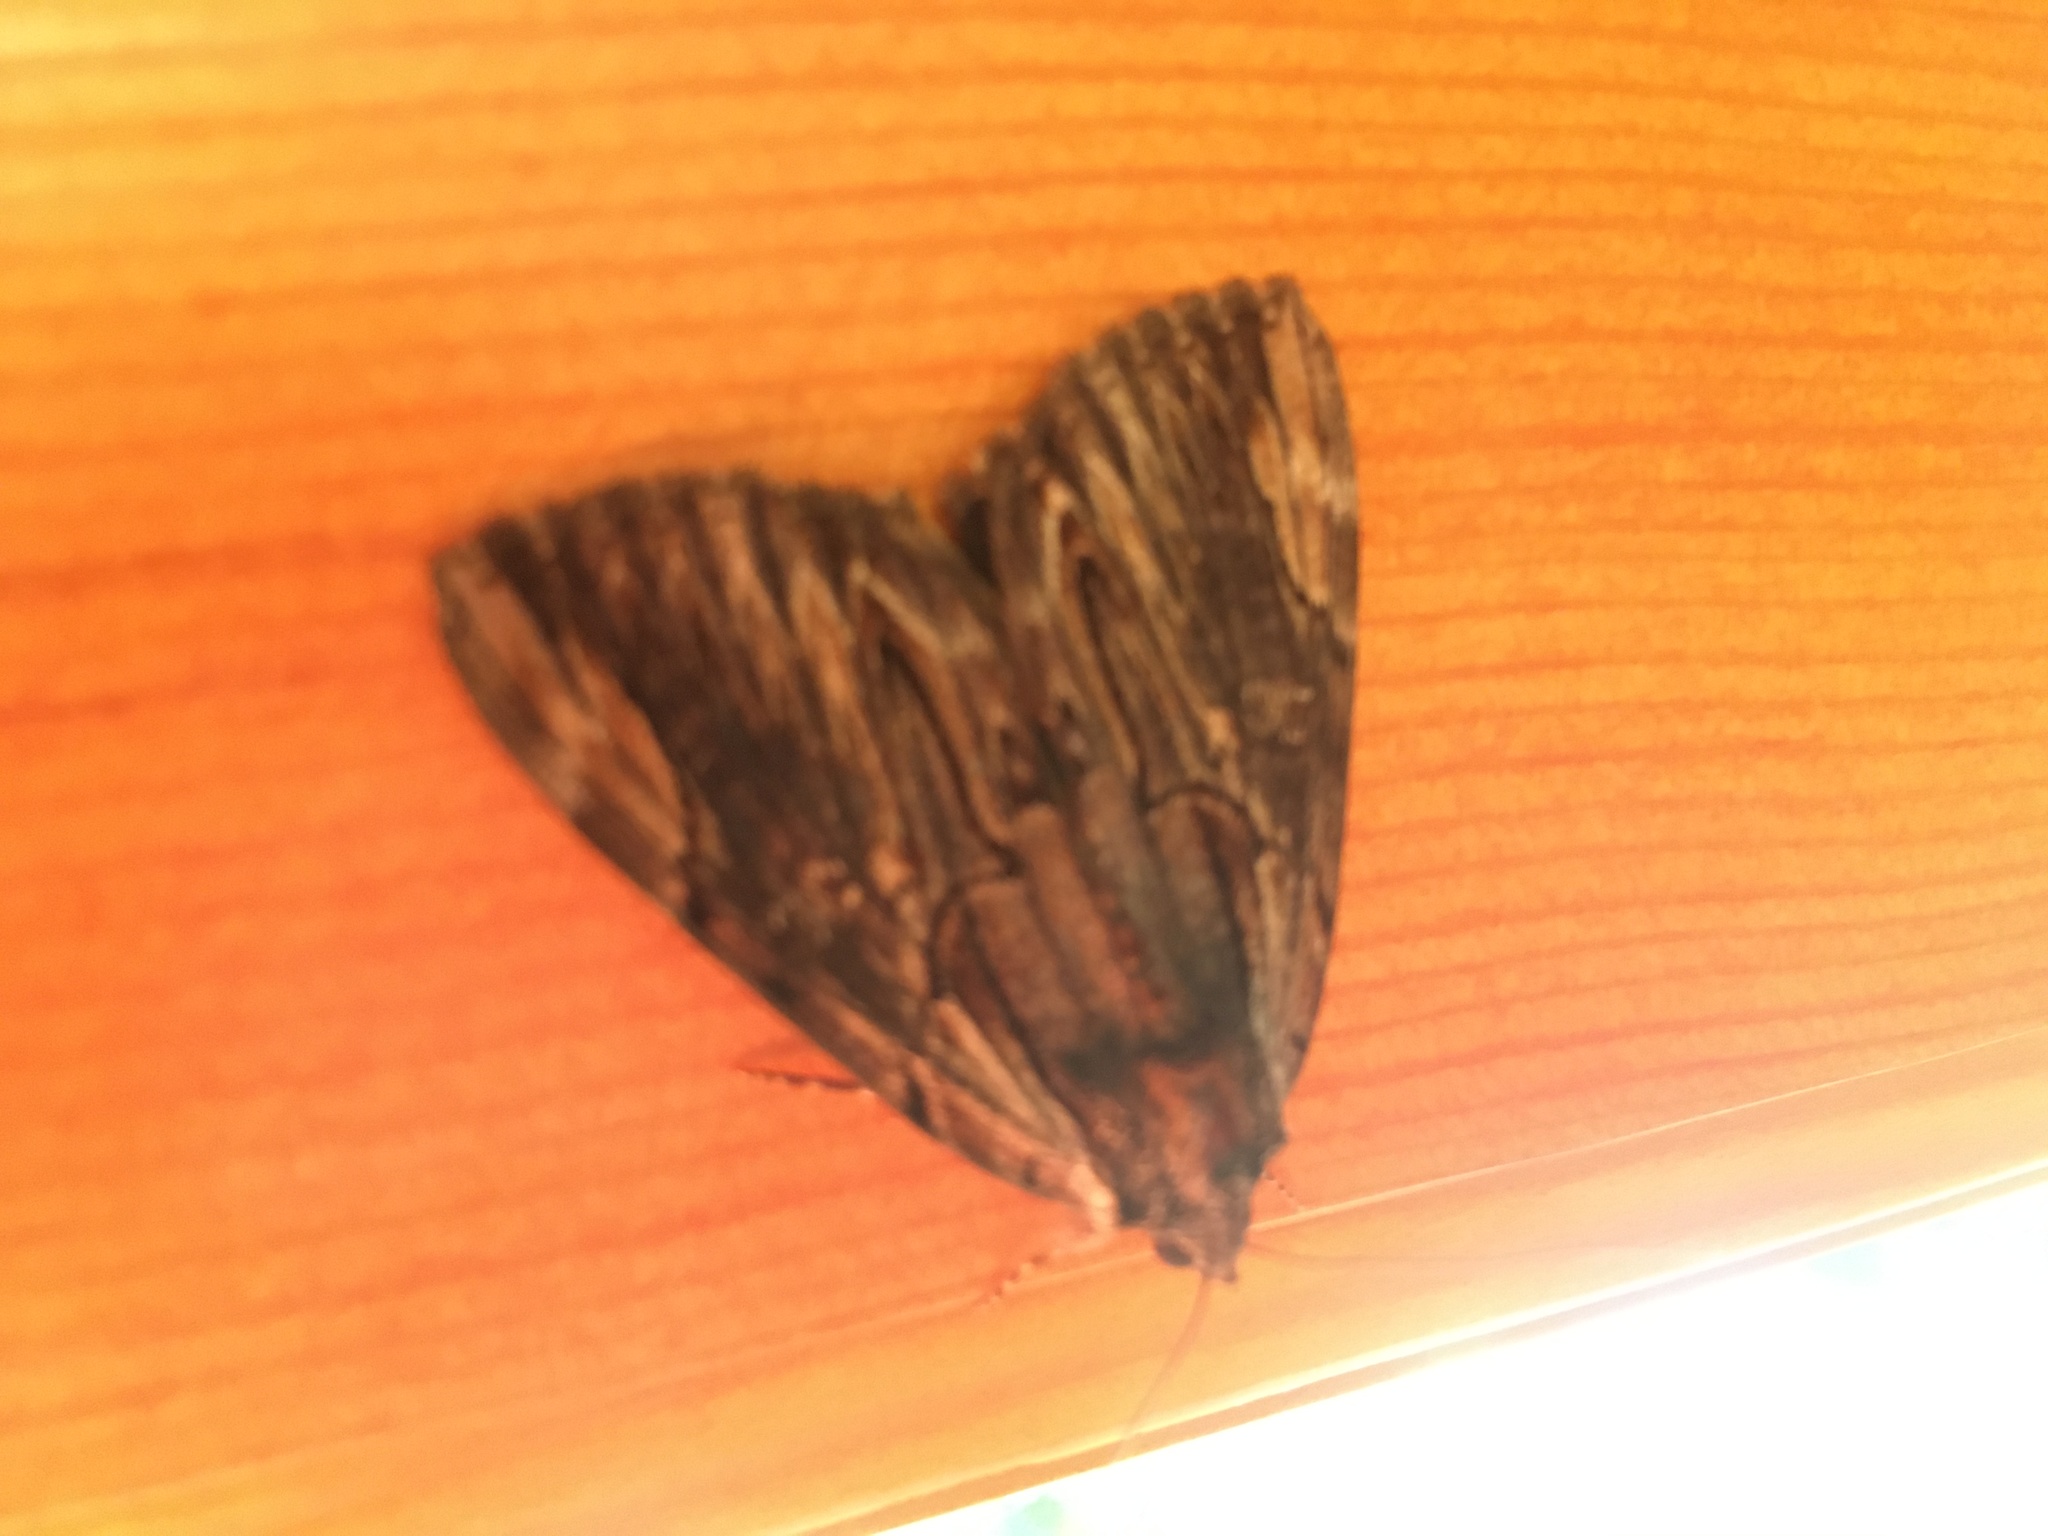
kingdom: Animalia
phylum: Arthropoda
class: Insecta
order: Lepidoptera
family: Erebidae
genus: Catocala
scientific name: Catocala ultronia
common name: Ultronia underwing
